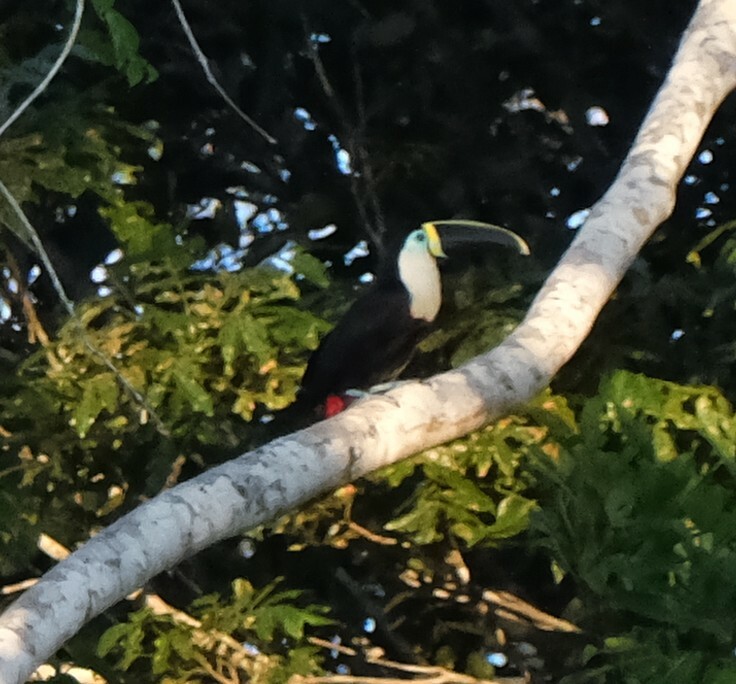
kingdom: Animalia
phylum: Chordata
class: Aves
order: Piciformes
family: Ramphastidae
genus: Ramphastos
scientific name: Ramphastos tucanus
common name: White-throated toucan
